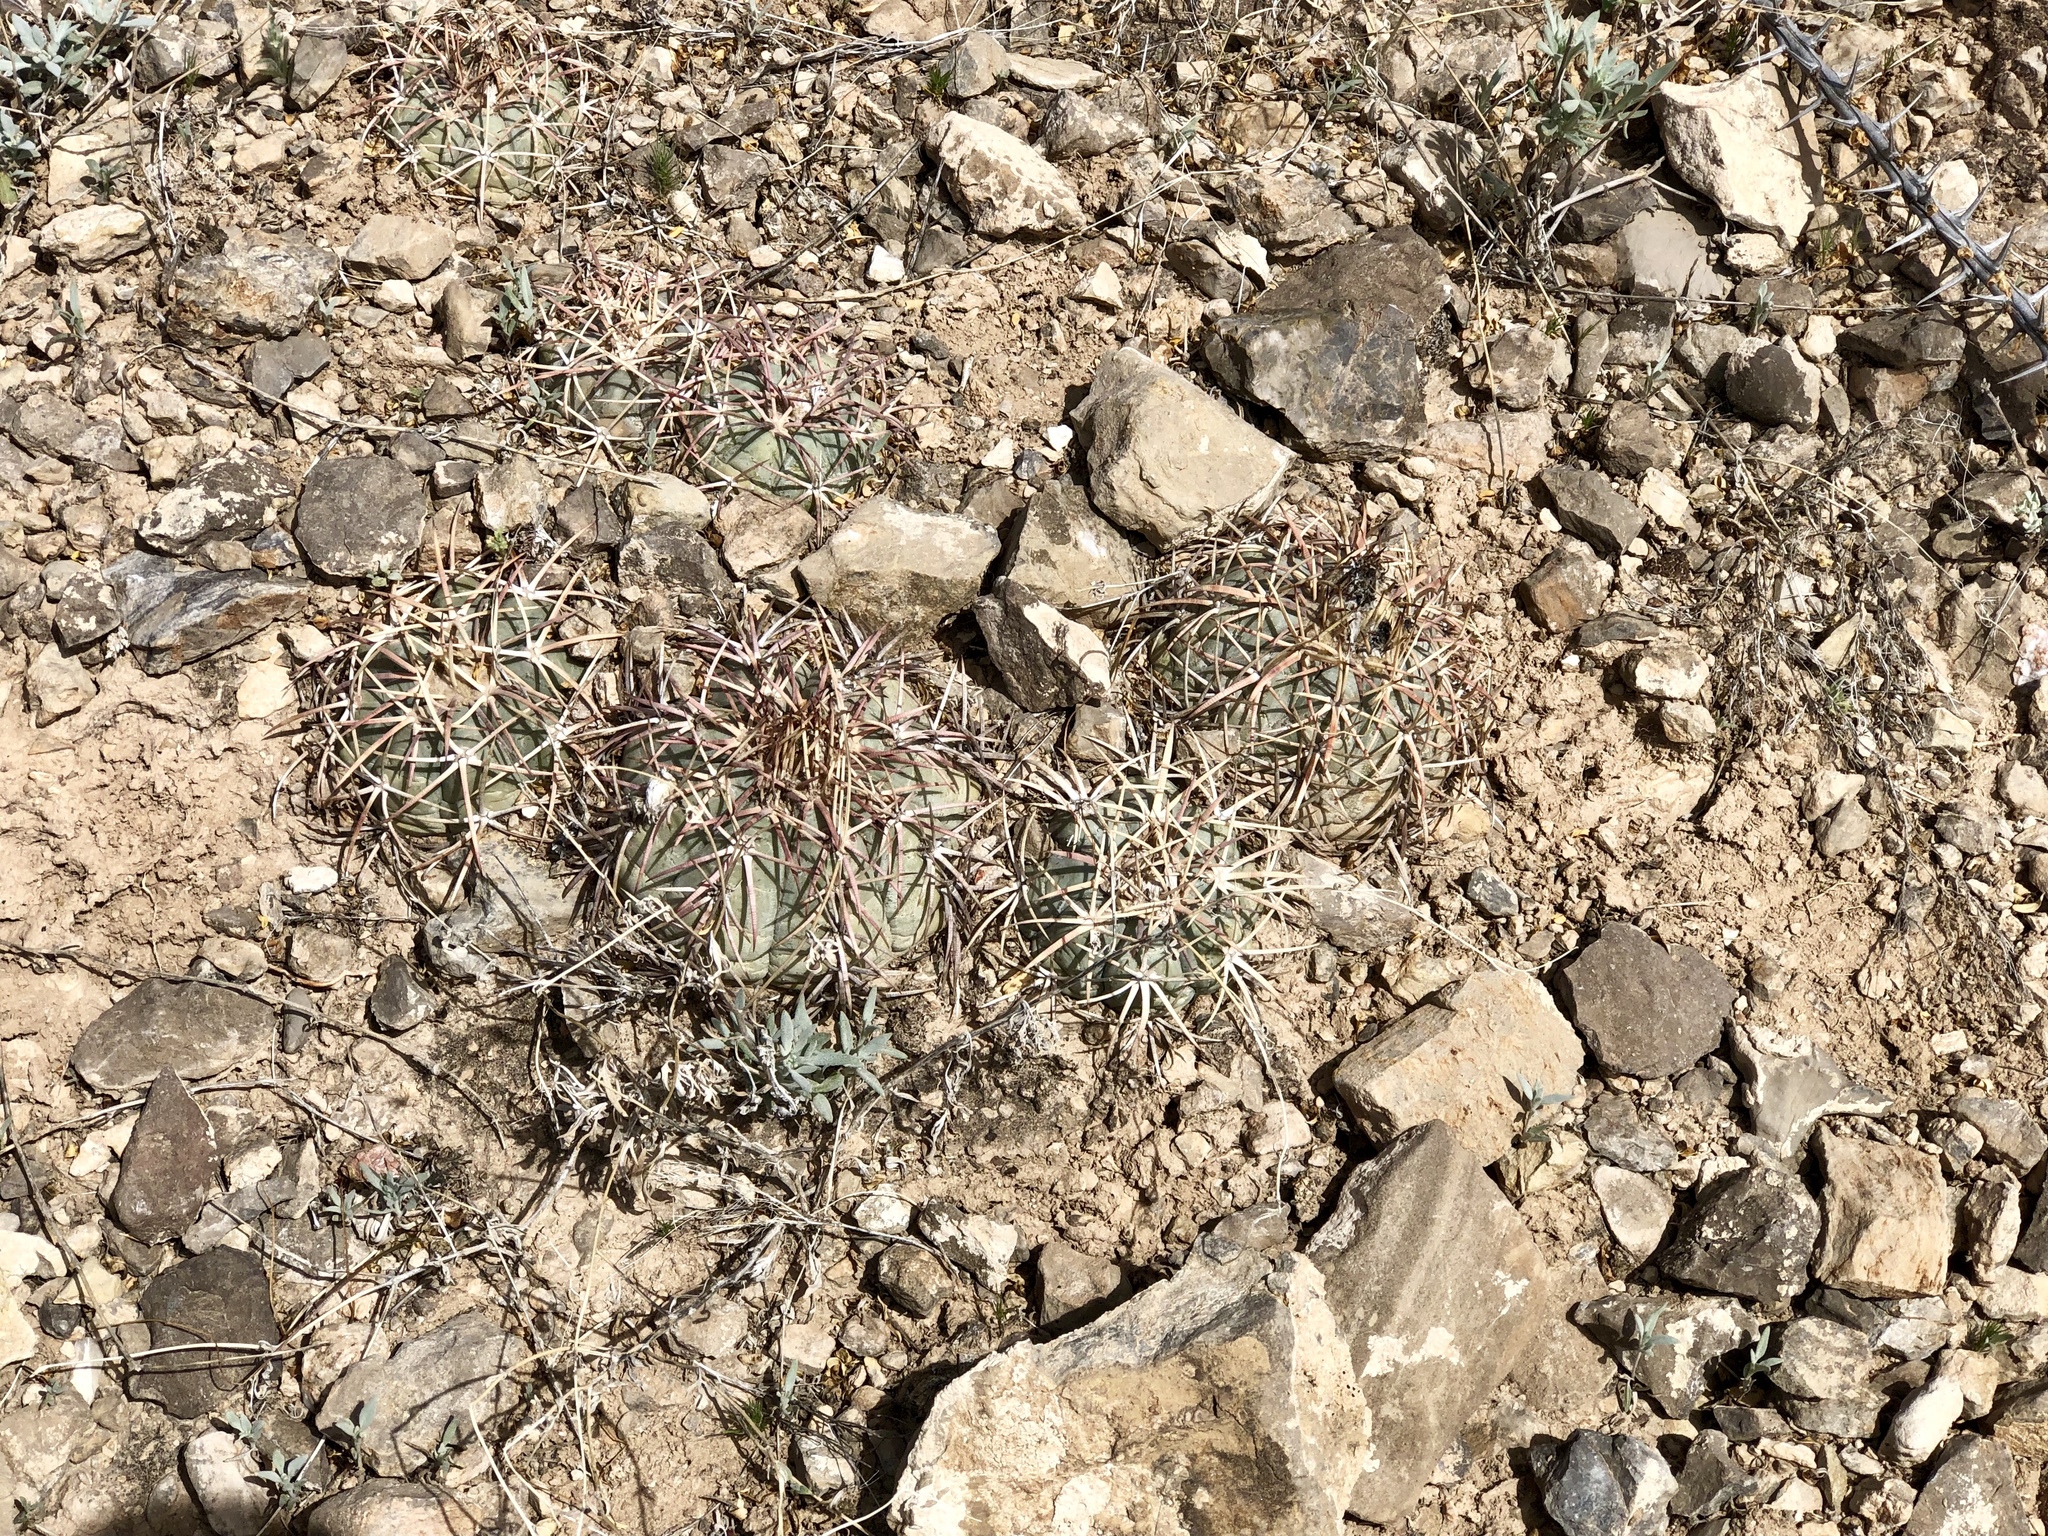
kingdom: Plantae
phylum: Tracheophyta
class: Magnoliopsida
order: Caryophyllales
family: Cactaceae
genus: Echinocactus
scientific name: Echinocactus horizonthalonius
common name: Devilshead
